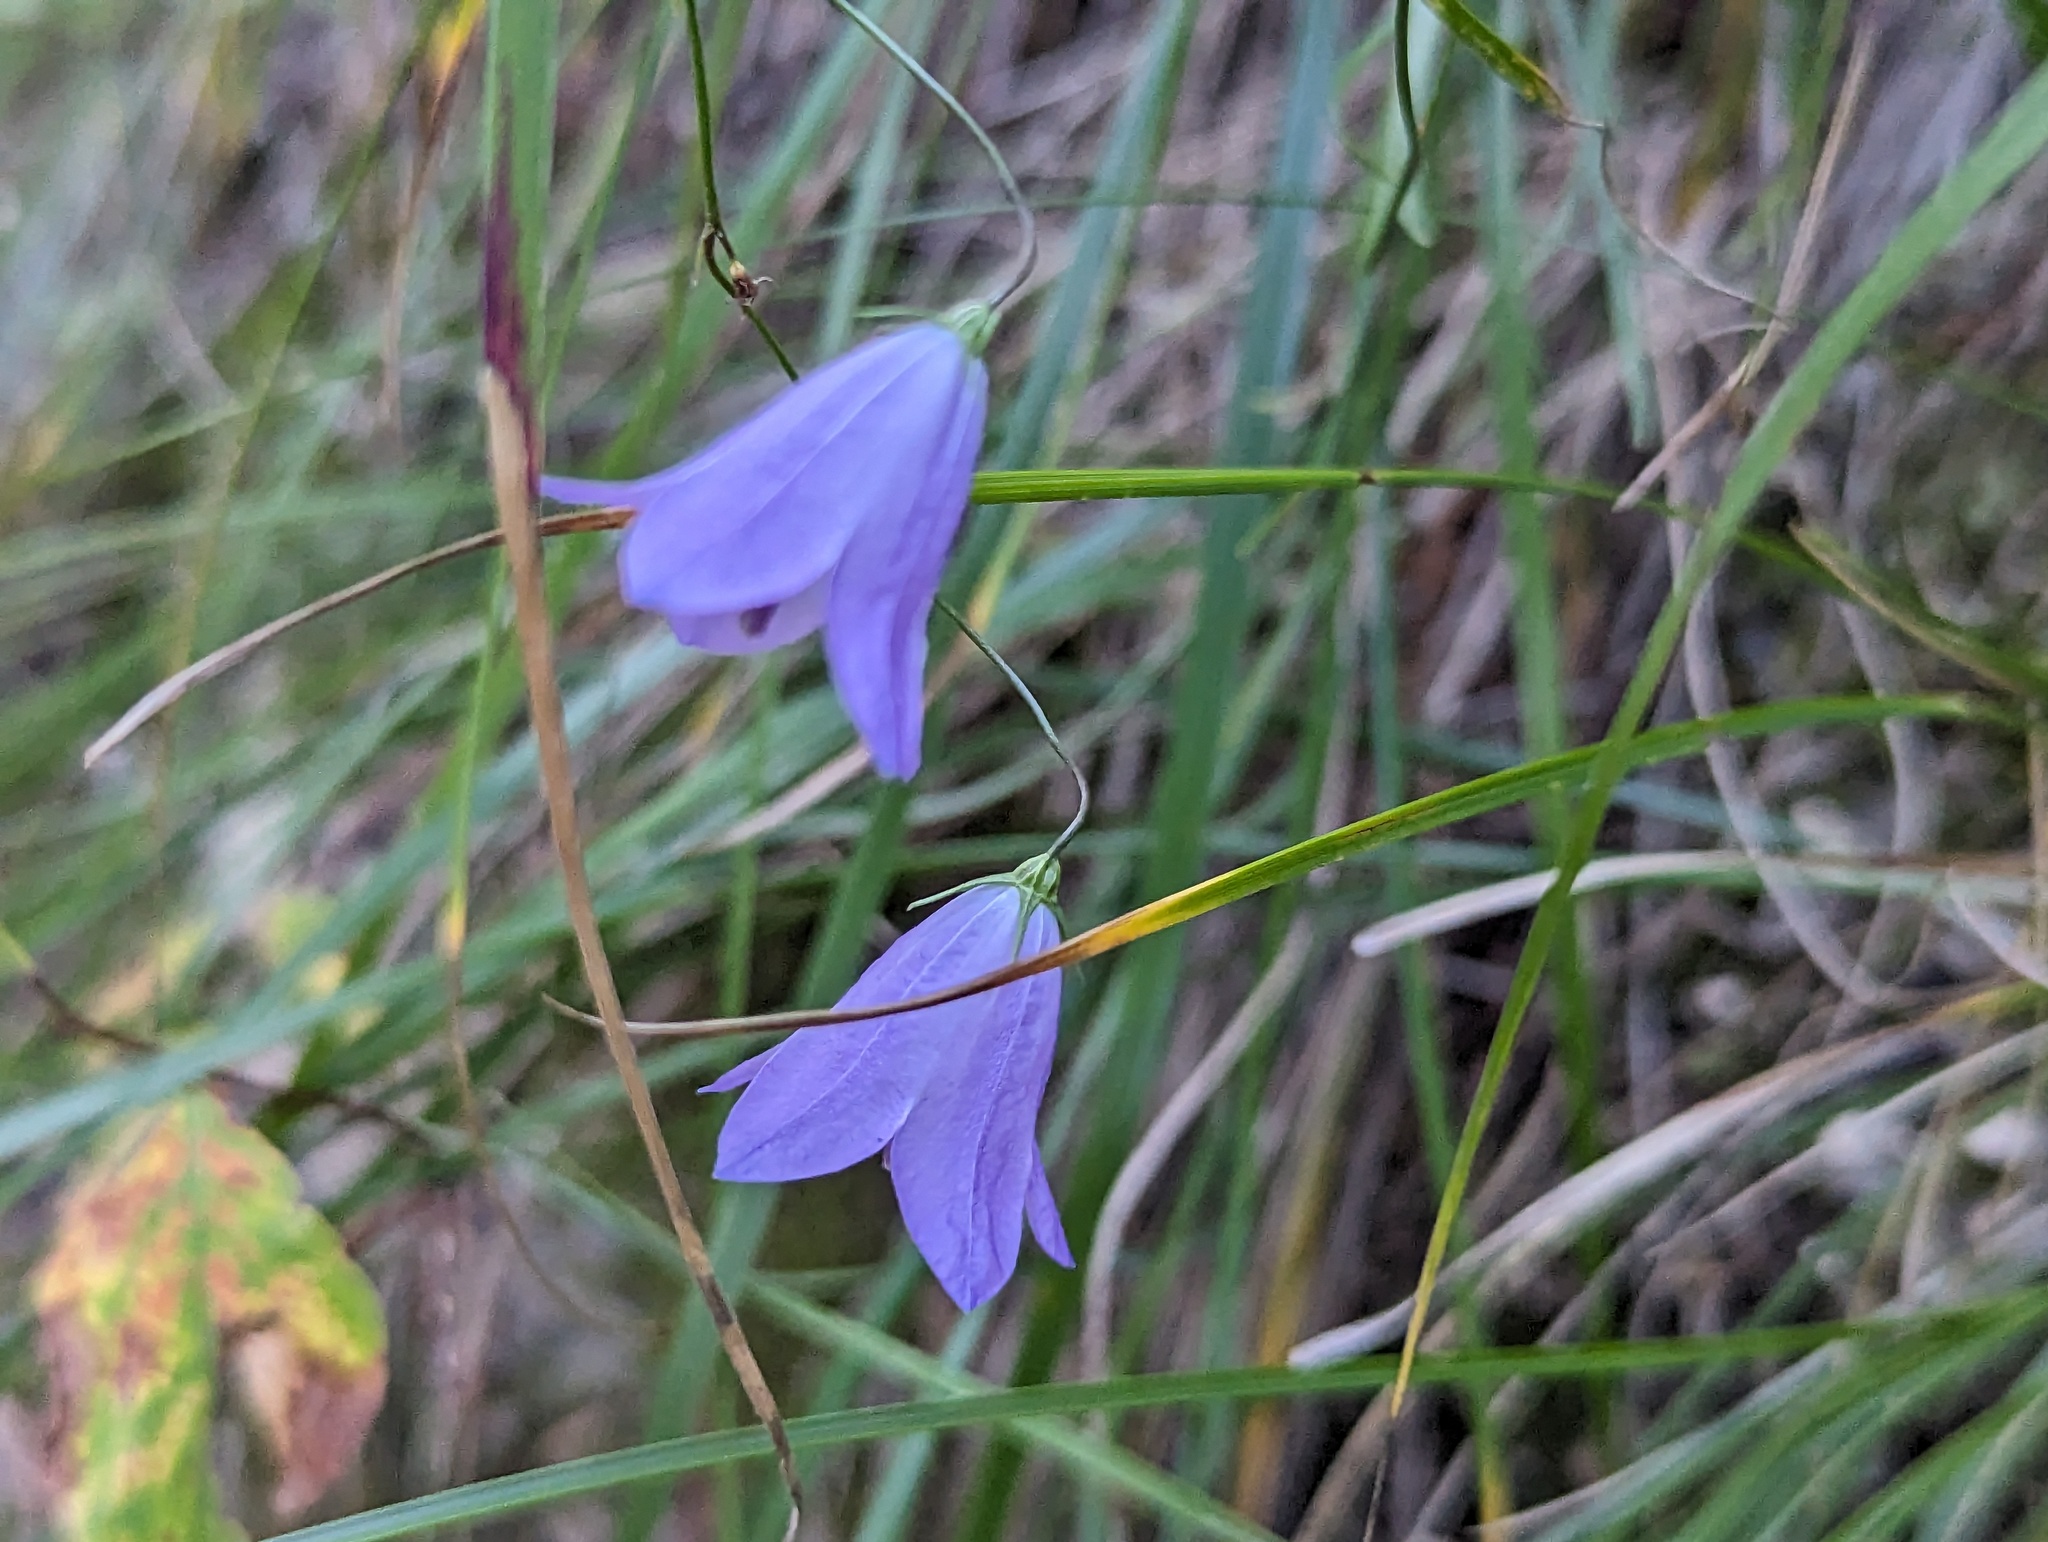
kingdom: Plantae
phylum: Tracheophyta
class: Magnoliopsida
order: Asterales
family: Campanulaceae
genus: Campanula
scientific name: Campanula
